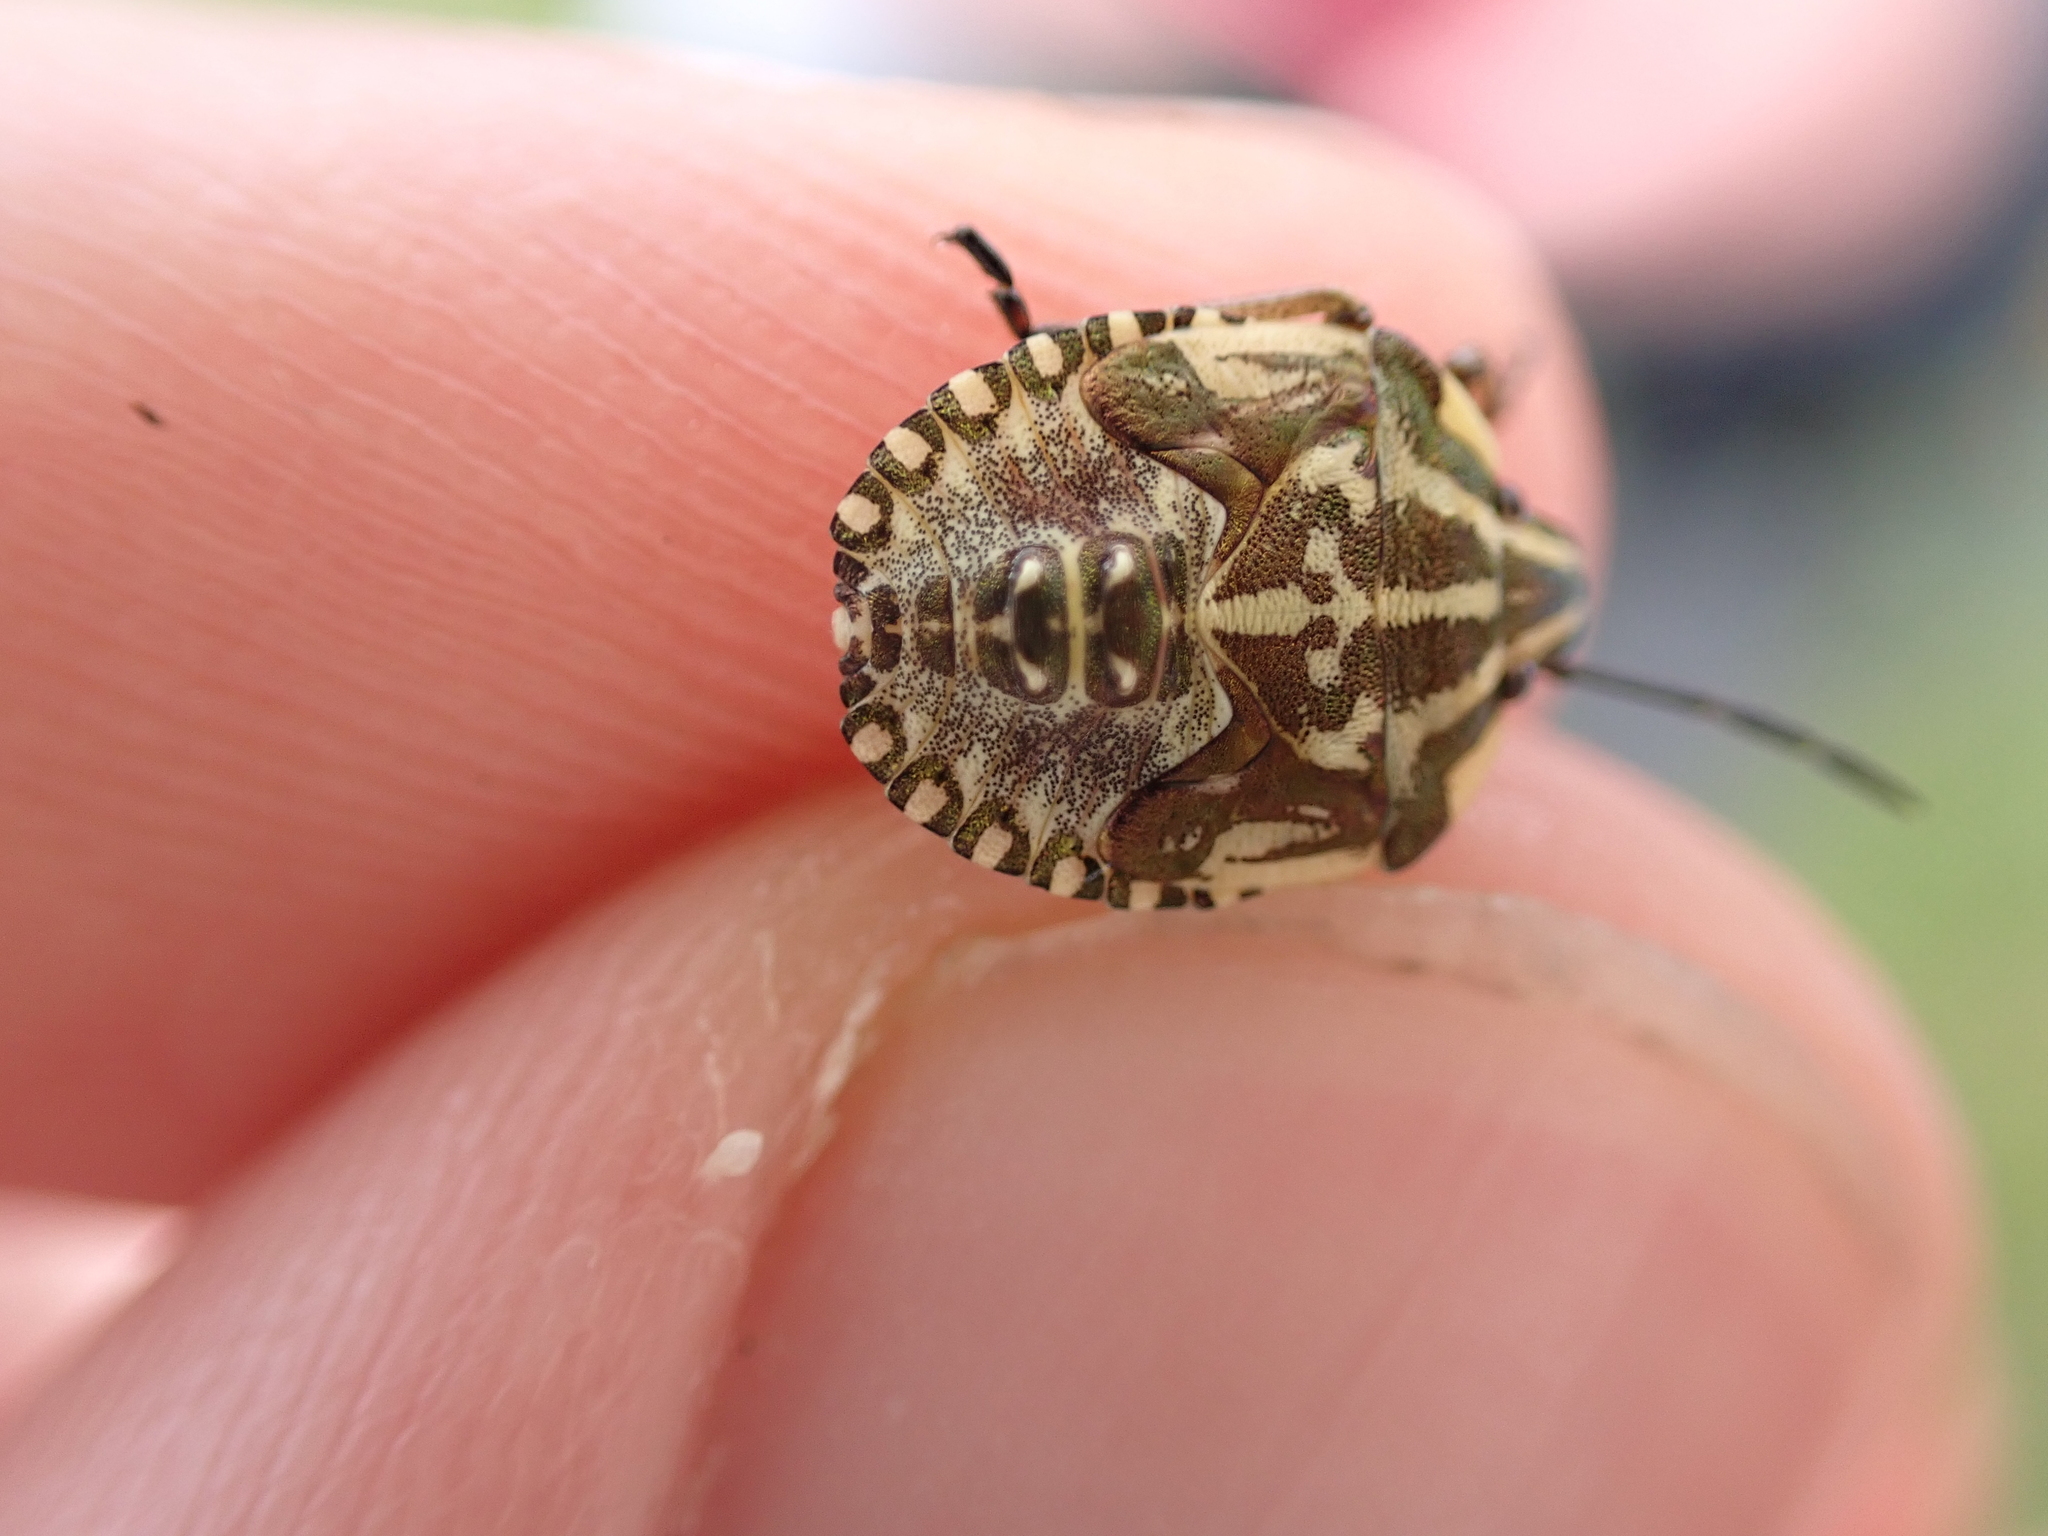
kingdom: Animalia
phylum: Arthropoda
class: Insecta
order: Hemiptera
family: Pentatomidae
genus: Carpocoris
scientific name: Carpocoris purpureipennis
